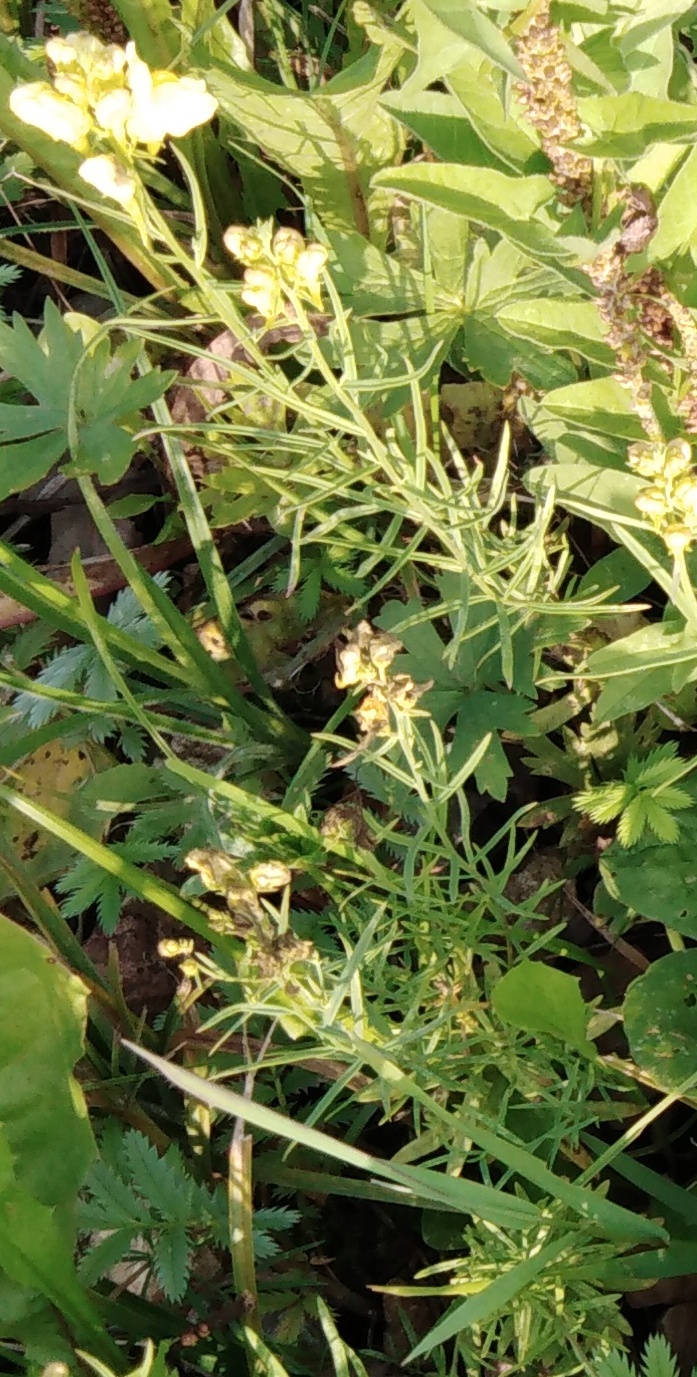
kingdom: Plantae
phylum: Tracheophyta
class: Magnoliopsida
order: Lamiales
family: Plantaginaceae
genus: Linaria
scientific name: Linaria vulgaris
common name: Butter and eggs
